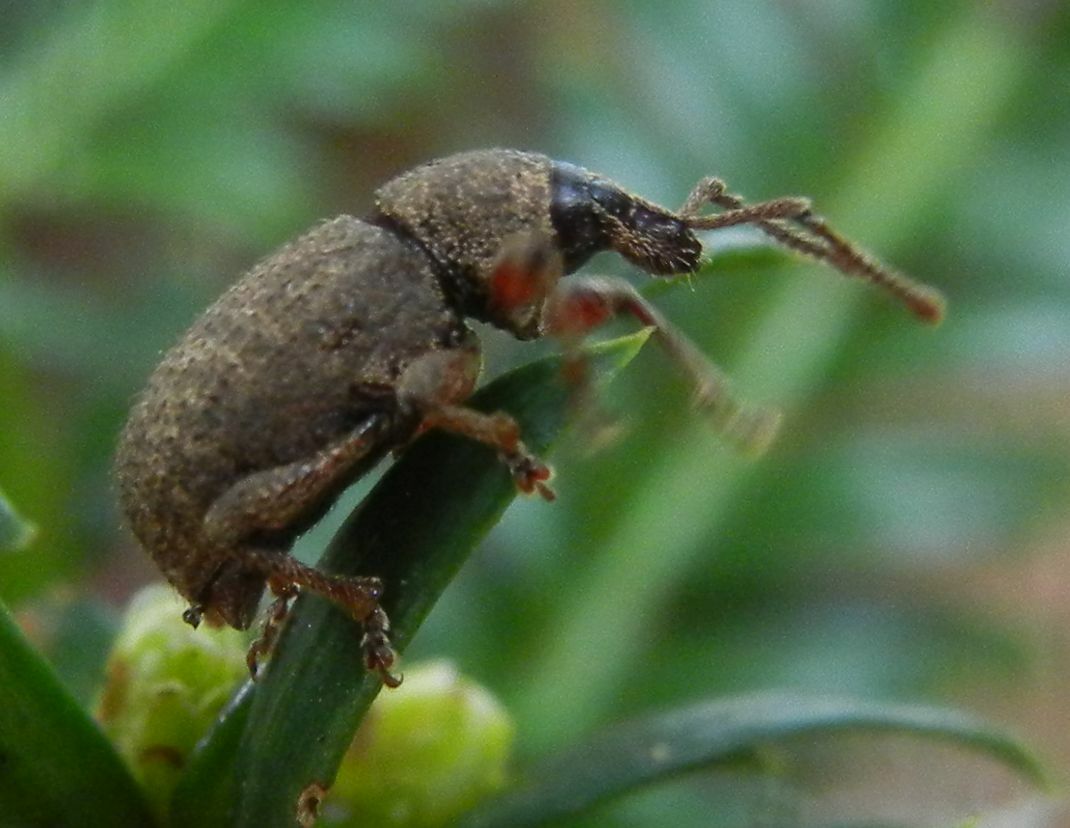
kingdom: Animalia
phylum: Arthropoda
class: Insecta
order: Coleoptera
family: Curculionidae
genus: Otiorhynchus
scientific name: Otiorhynchus singularis
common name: Clay-coloured weevil
